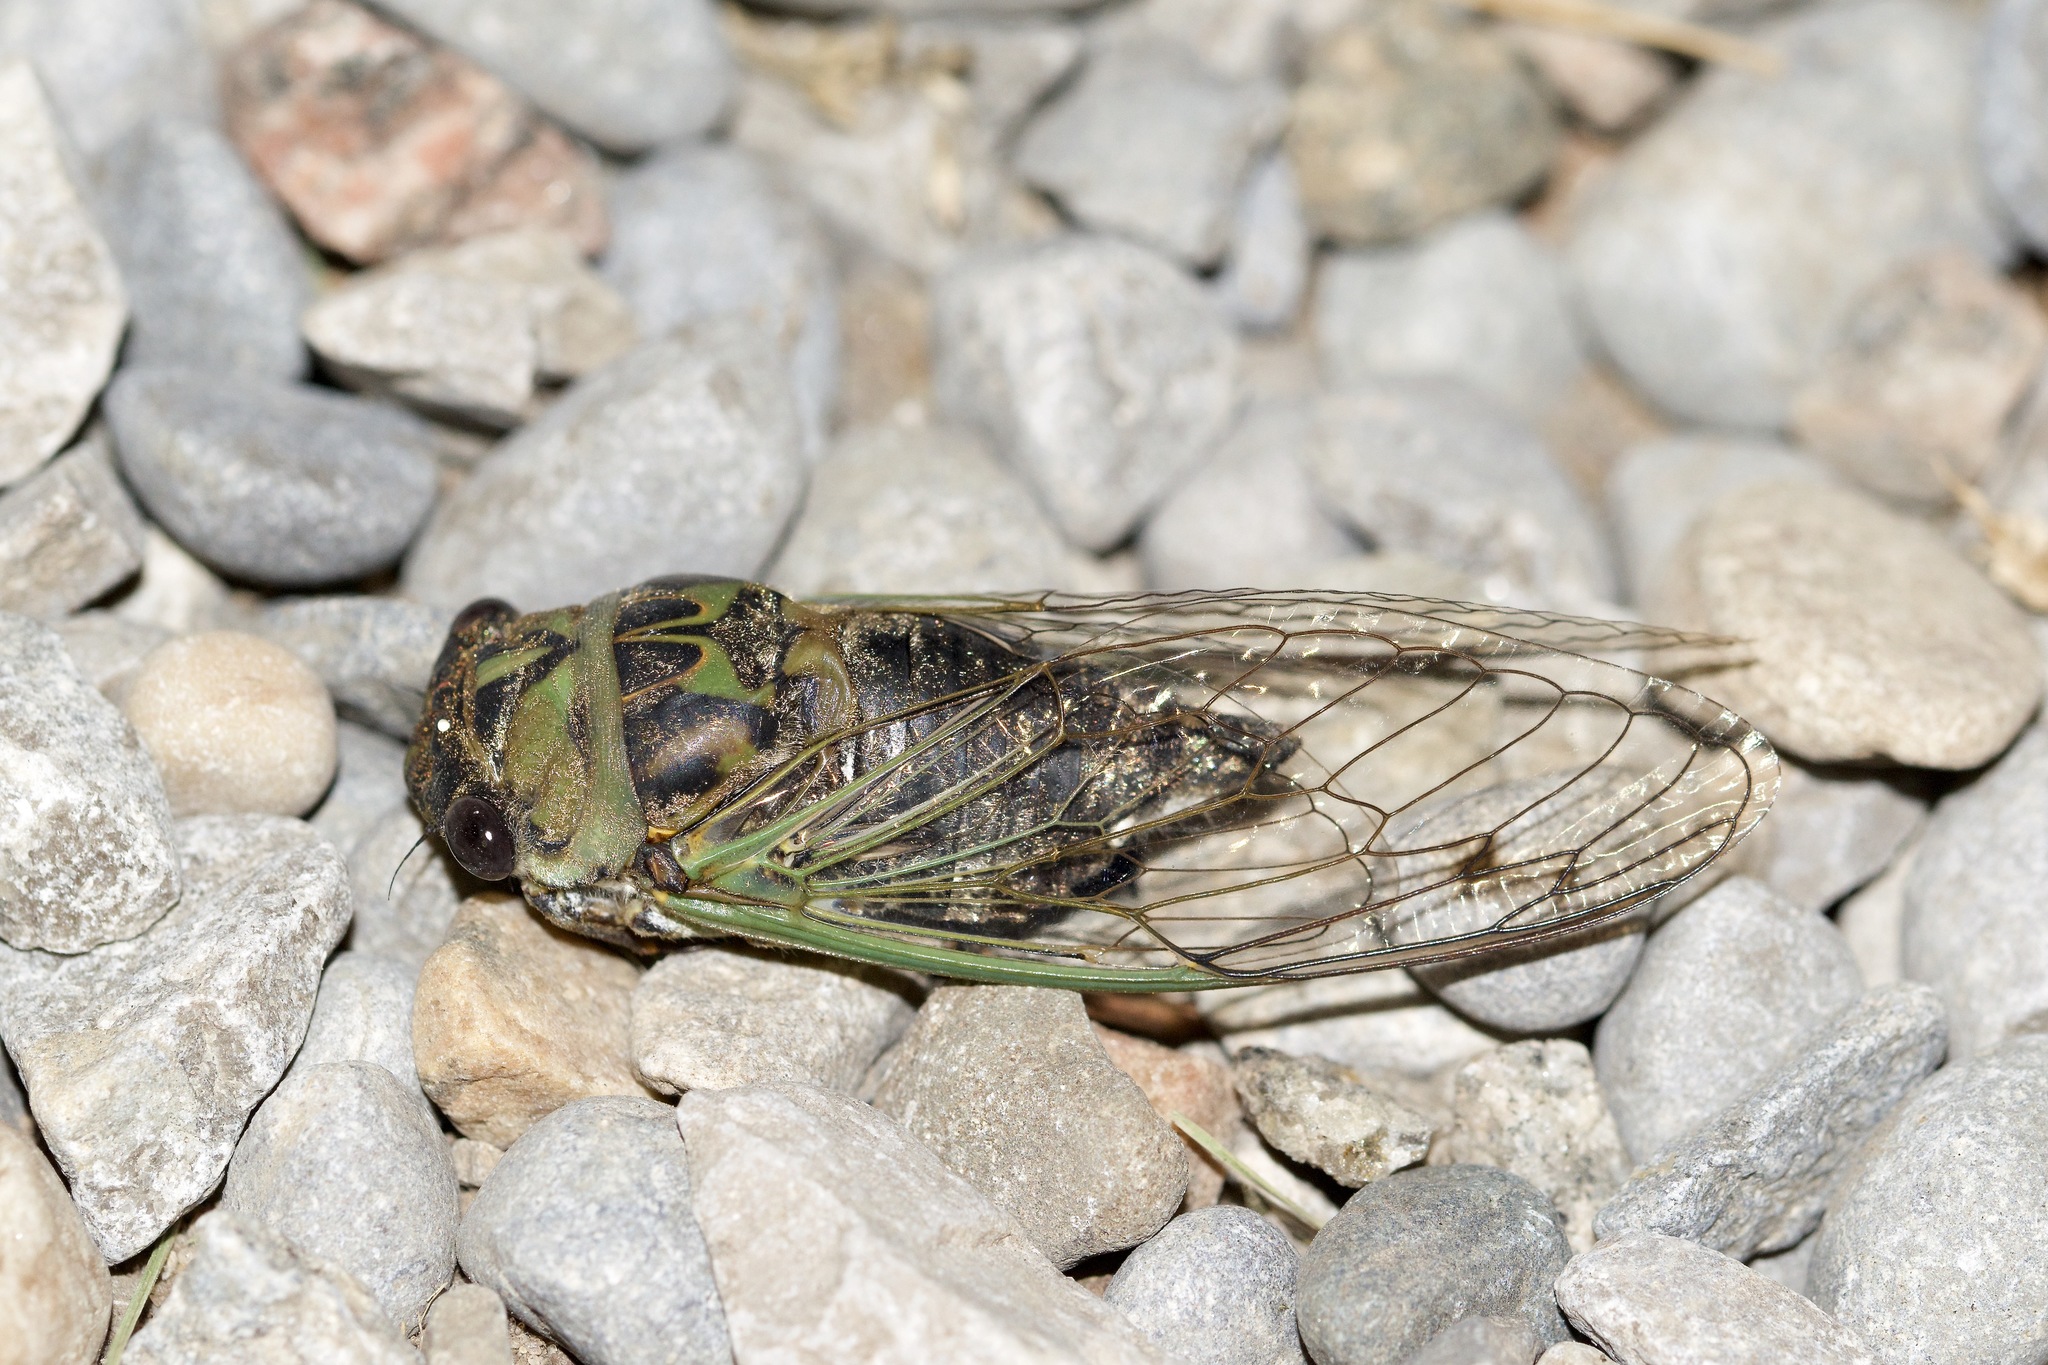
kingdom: Animalia
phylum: Arthropoda
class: Insecta
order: Hemiptera
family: Cicadidae
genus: Neotibicen
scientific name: Neotibicen canicularis
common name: God-day cicada
